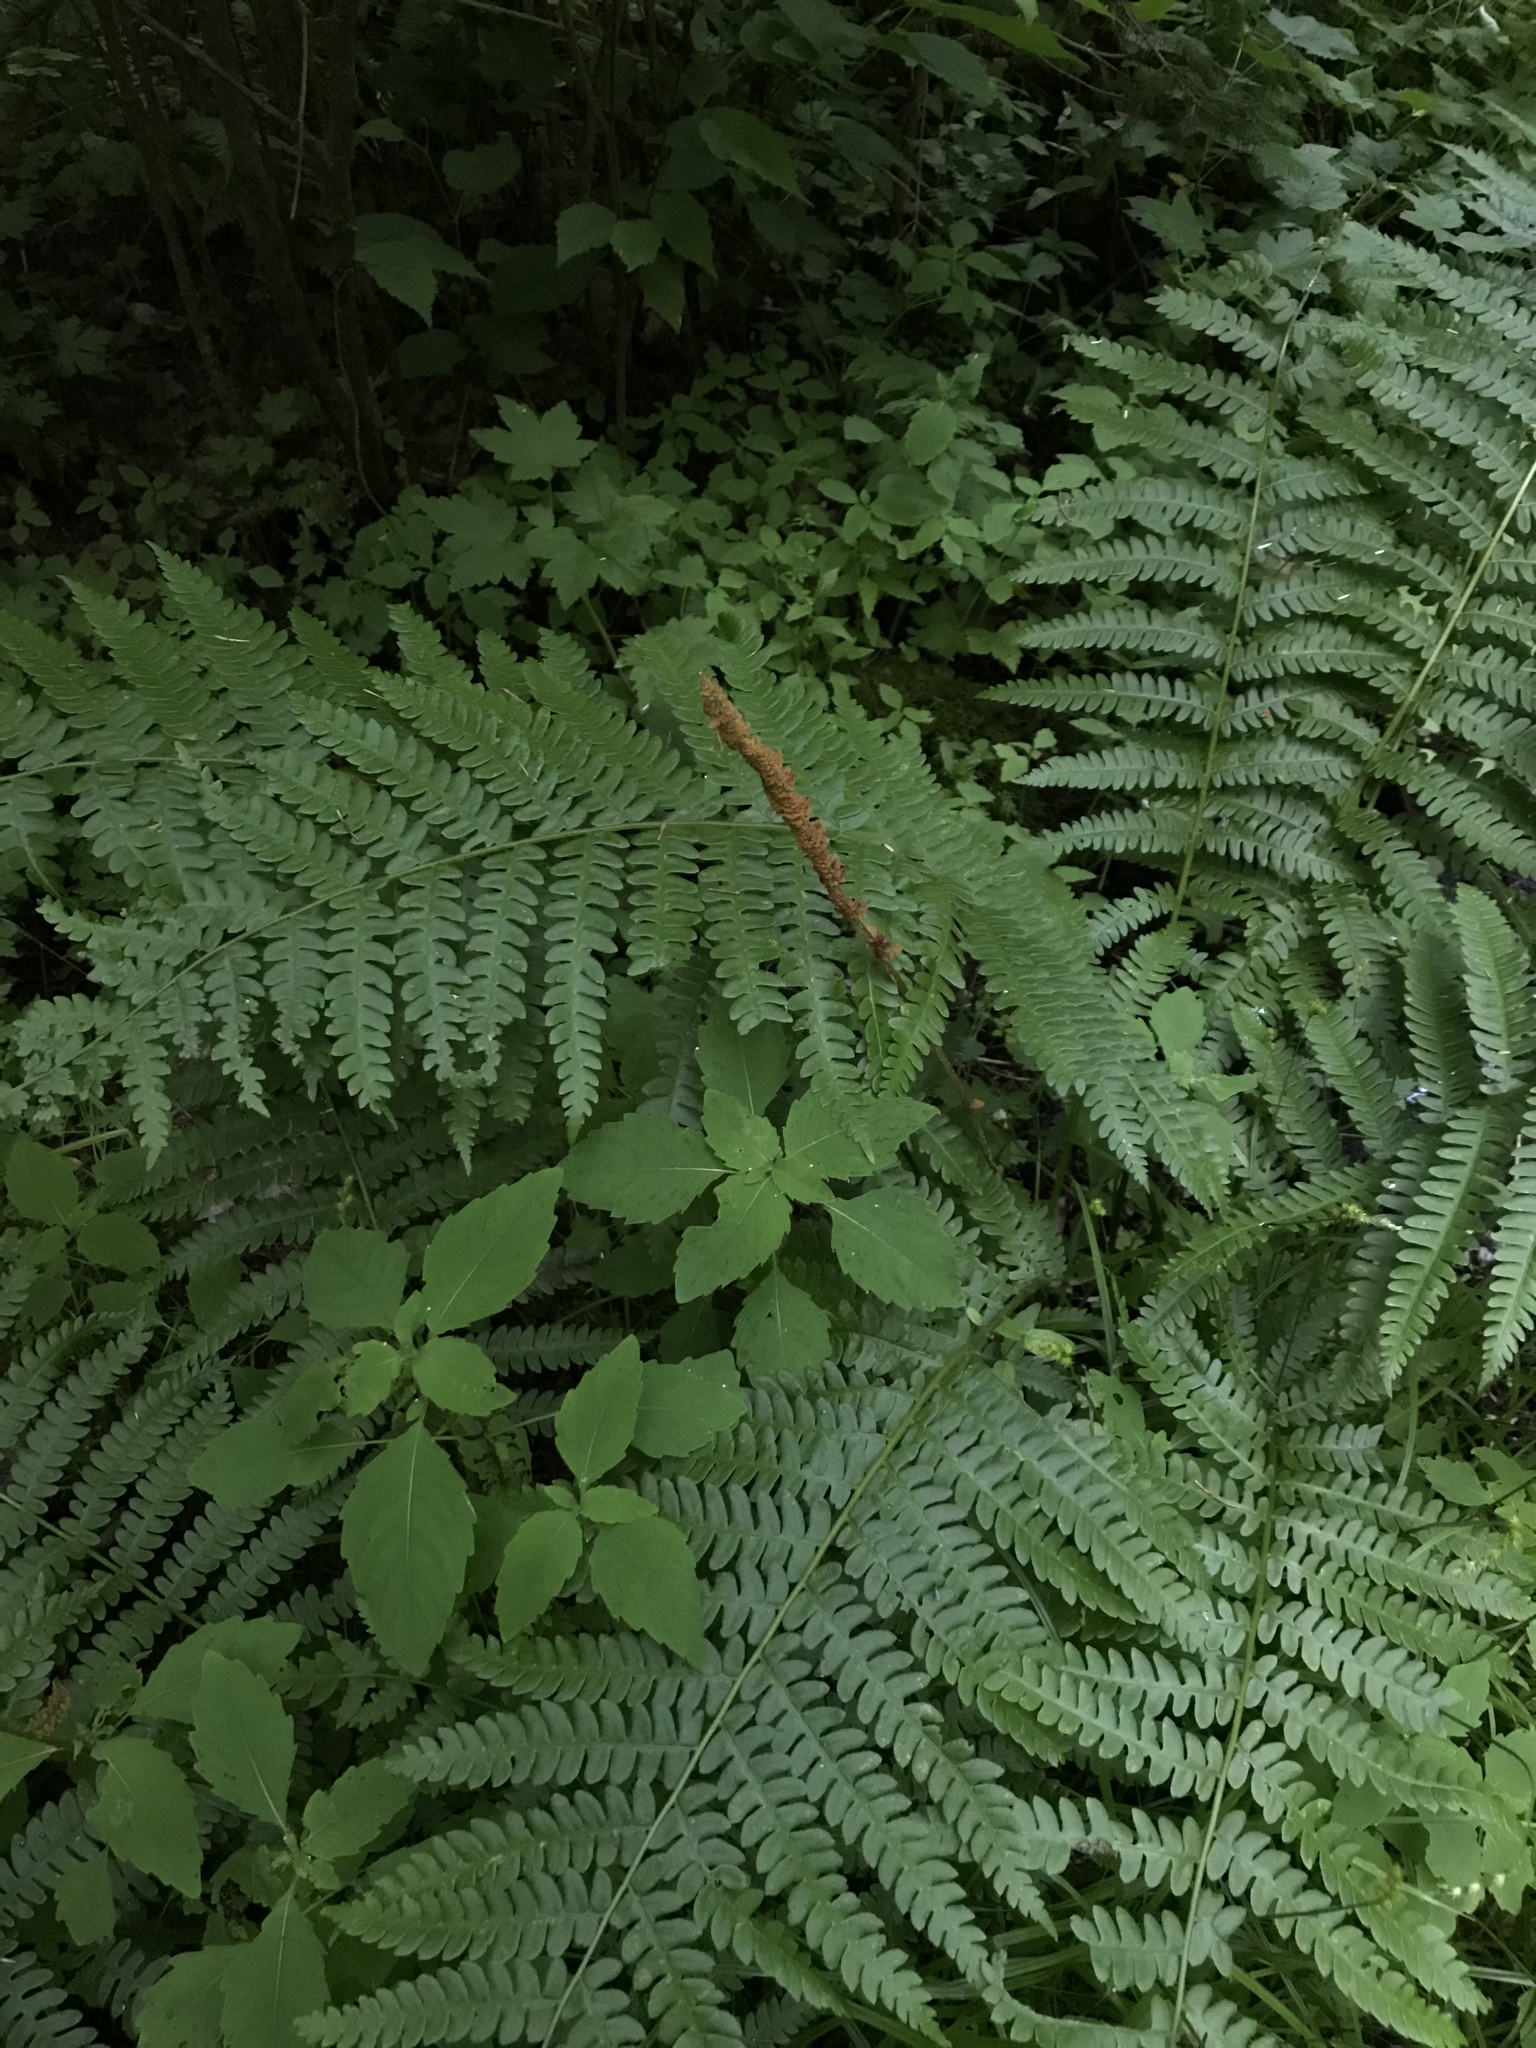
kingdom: Plantae
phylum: Tracheophyta
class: Polypodiopsida
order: Osmundales
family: Osmundaceae
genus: Osmundastrum
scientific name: Osmundastrum cinnamomeum
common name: Cinnamon fern
